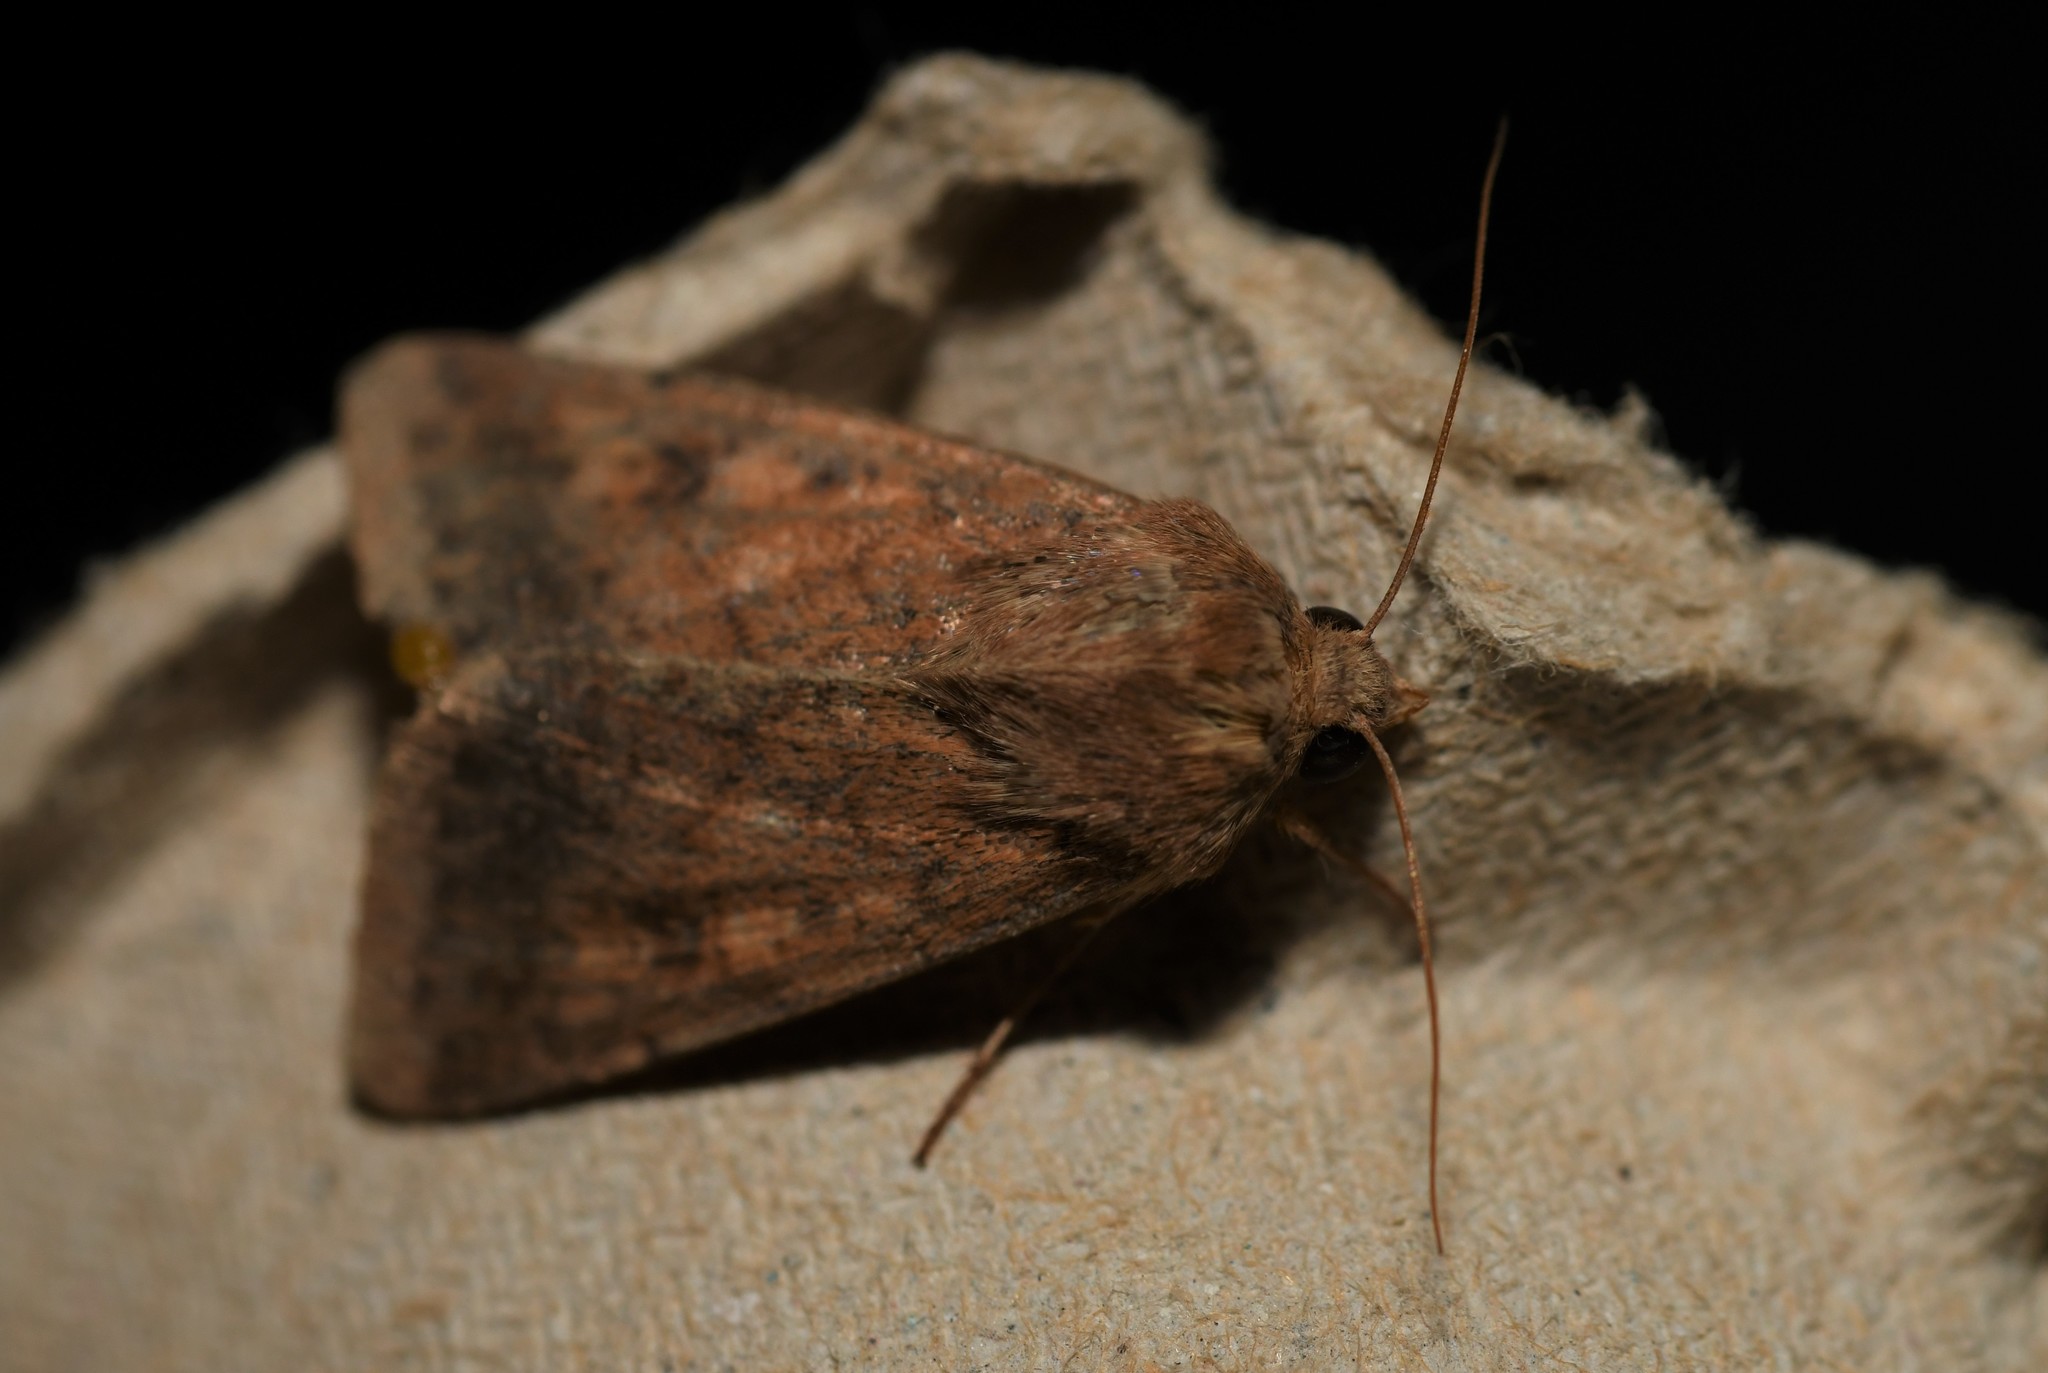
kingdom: Animalia
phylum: Arthropoda
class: Insecta
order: Lepidoptera
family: Noctuidae
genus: Helicoverpa
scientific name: Helicoverpa armigera
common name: Cotton bollworm
